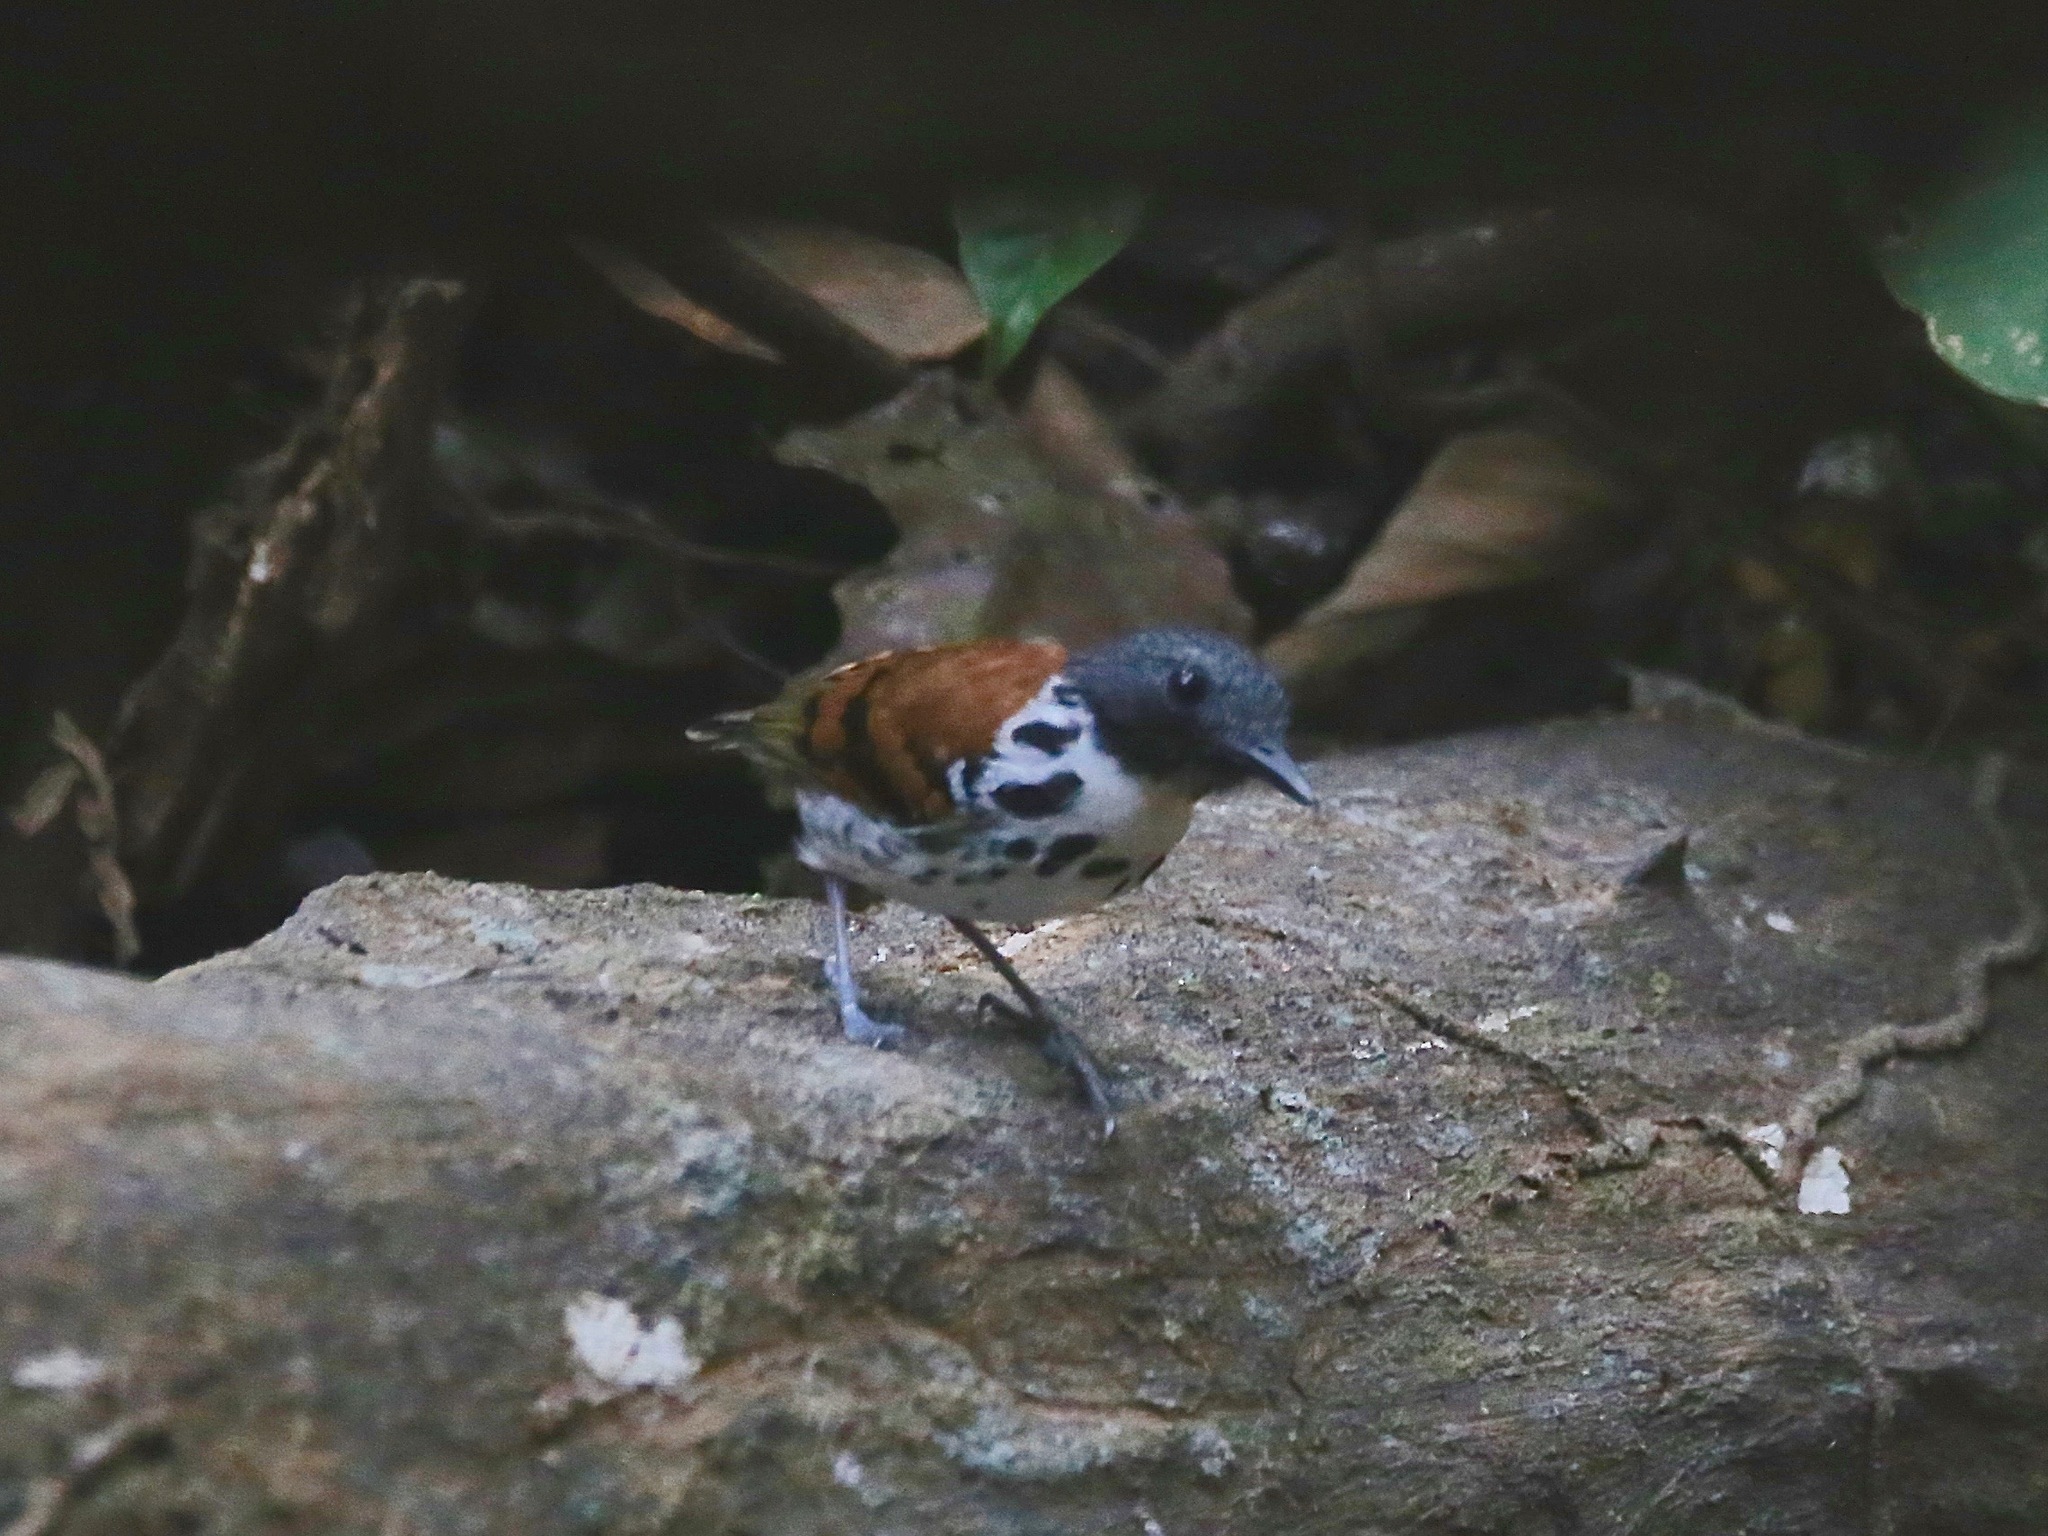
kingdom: Animalia
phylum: Chordata
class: Aves
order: Passeriformes
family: Thamnophilidae
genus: Hylophylax
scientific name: Hylophylax naevioides
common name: Spotted antbird
